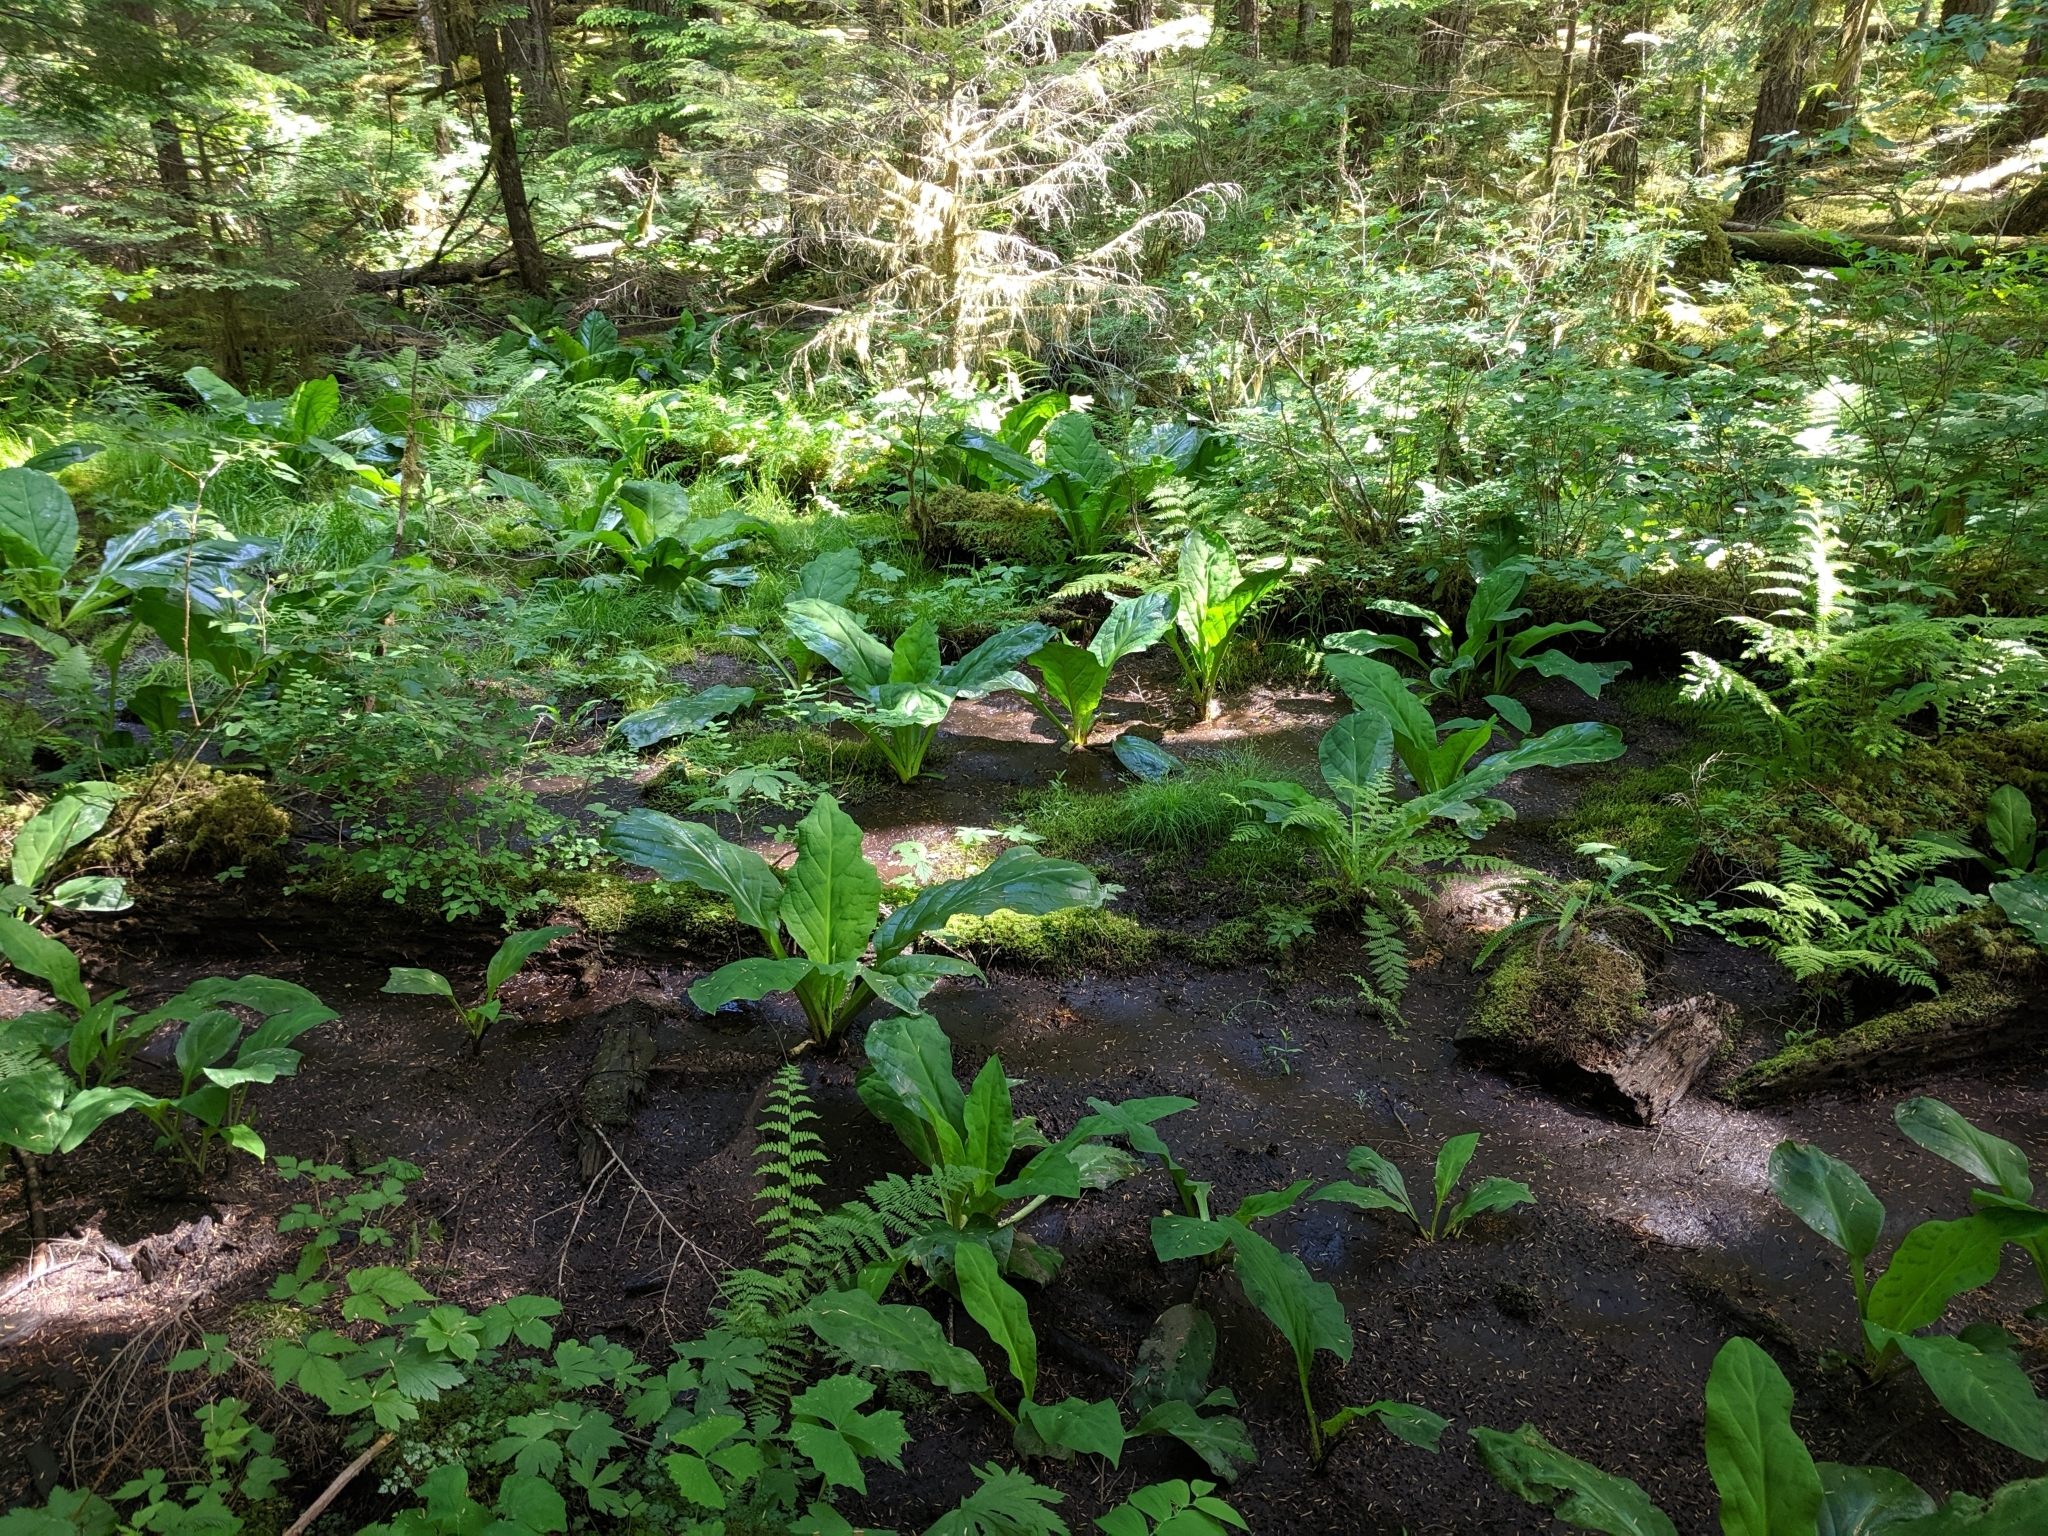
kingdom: Plantae
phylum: Tracheophyta
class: Liliopsida
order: Alismatales
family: Araceae
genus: Lysichiton
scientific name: Lysichiton americanus
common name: American skunk cabbage
